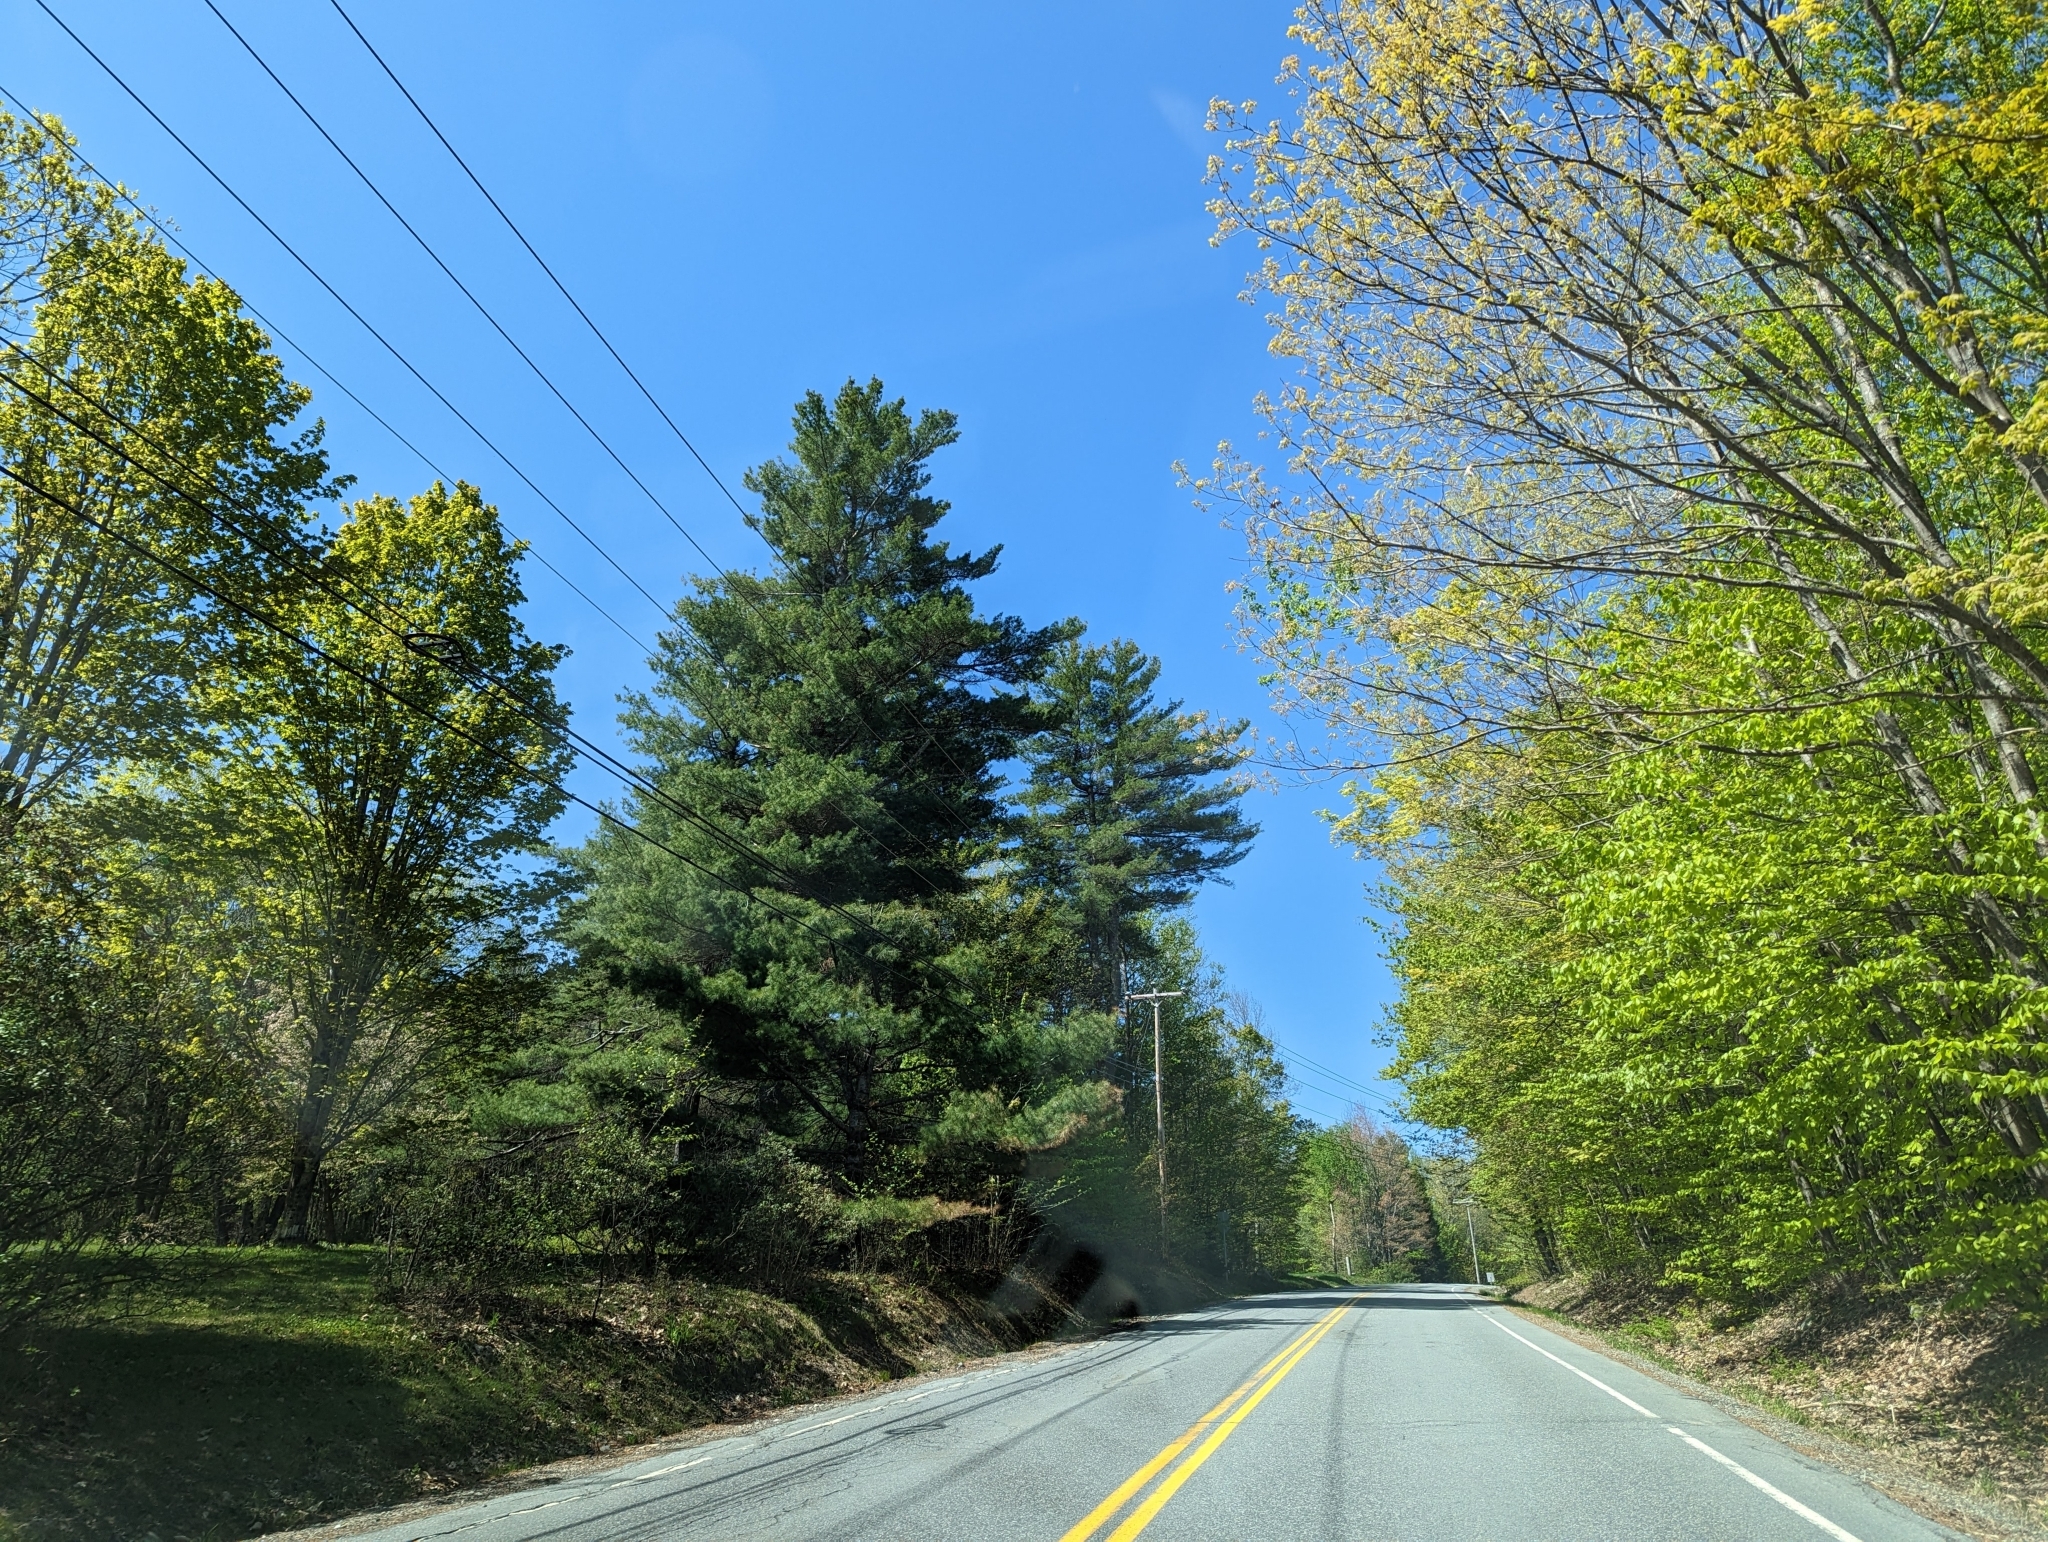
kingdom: Plantae
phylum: Tracheophyta
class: Pinopsida
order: Pinales
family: Pinaceae
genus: Pinus
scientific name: Pinus strobus
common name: Weymouth pine
